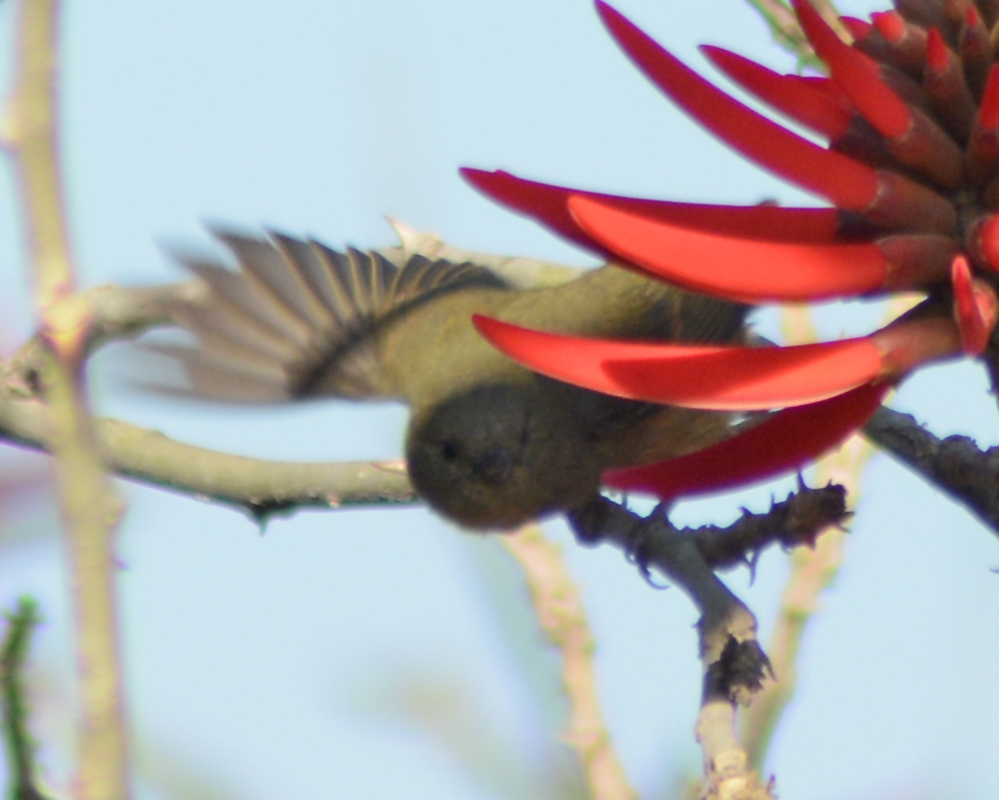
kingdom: Animalia
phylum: Chordata
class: Aves
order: Passeriformes
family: Thraupidae
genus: Diglossa
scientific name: Diglossa baritula
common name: Cinnamon-bellied flowerpiercer
